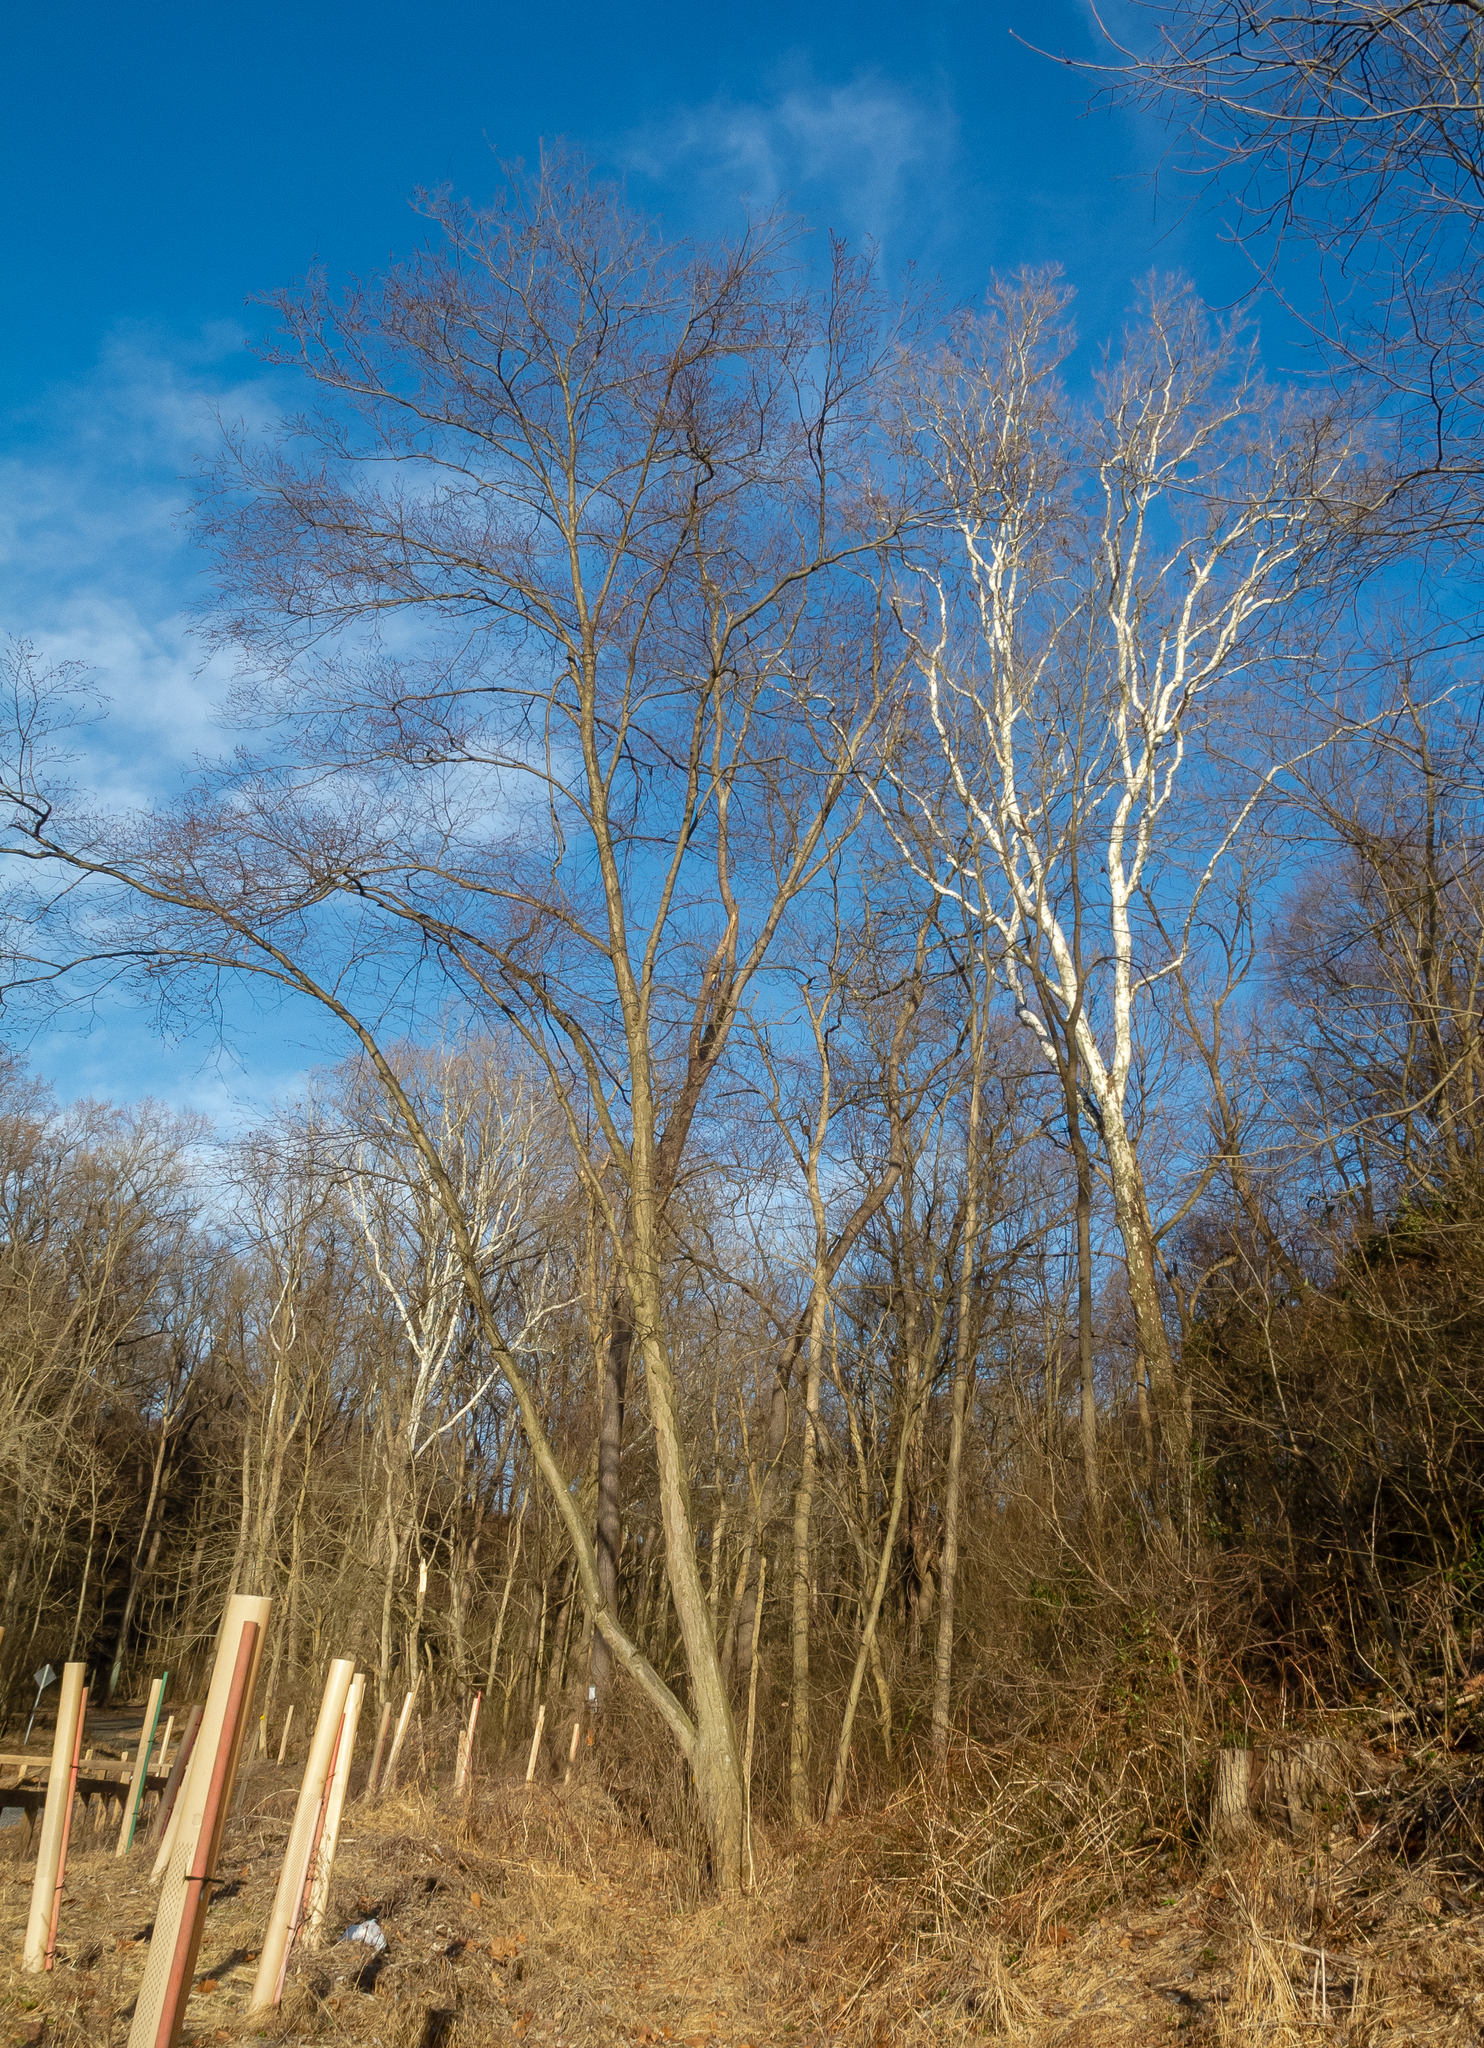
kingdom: Plantae
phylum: Tracheophyta
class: Magnoliopsida
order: Proteales
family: Platanaceae
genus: Platanus
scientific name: Platanus occidentalis
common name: American sycamore
